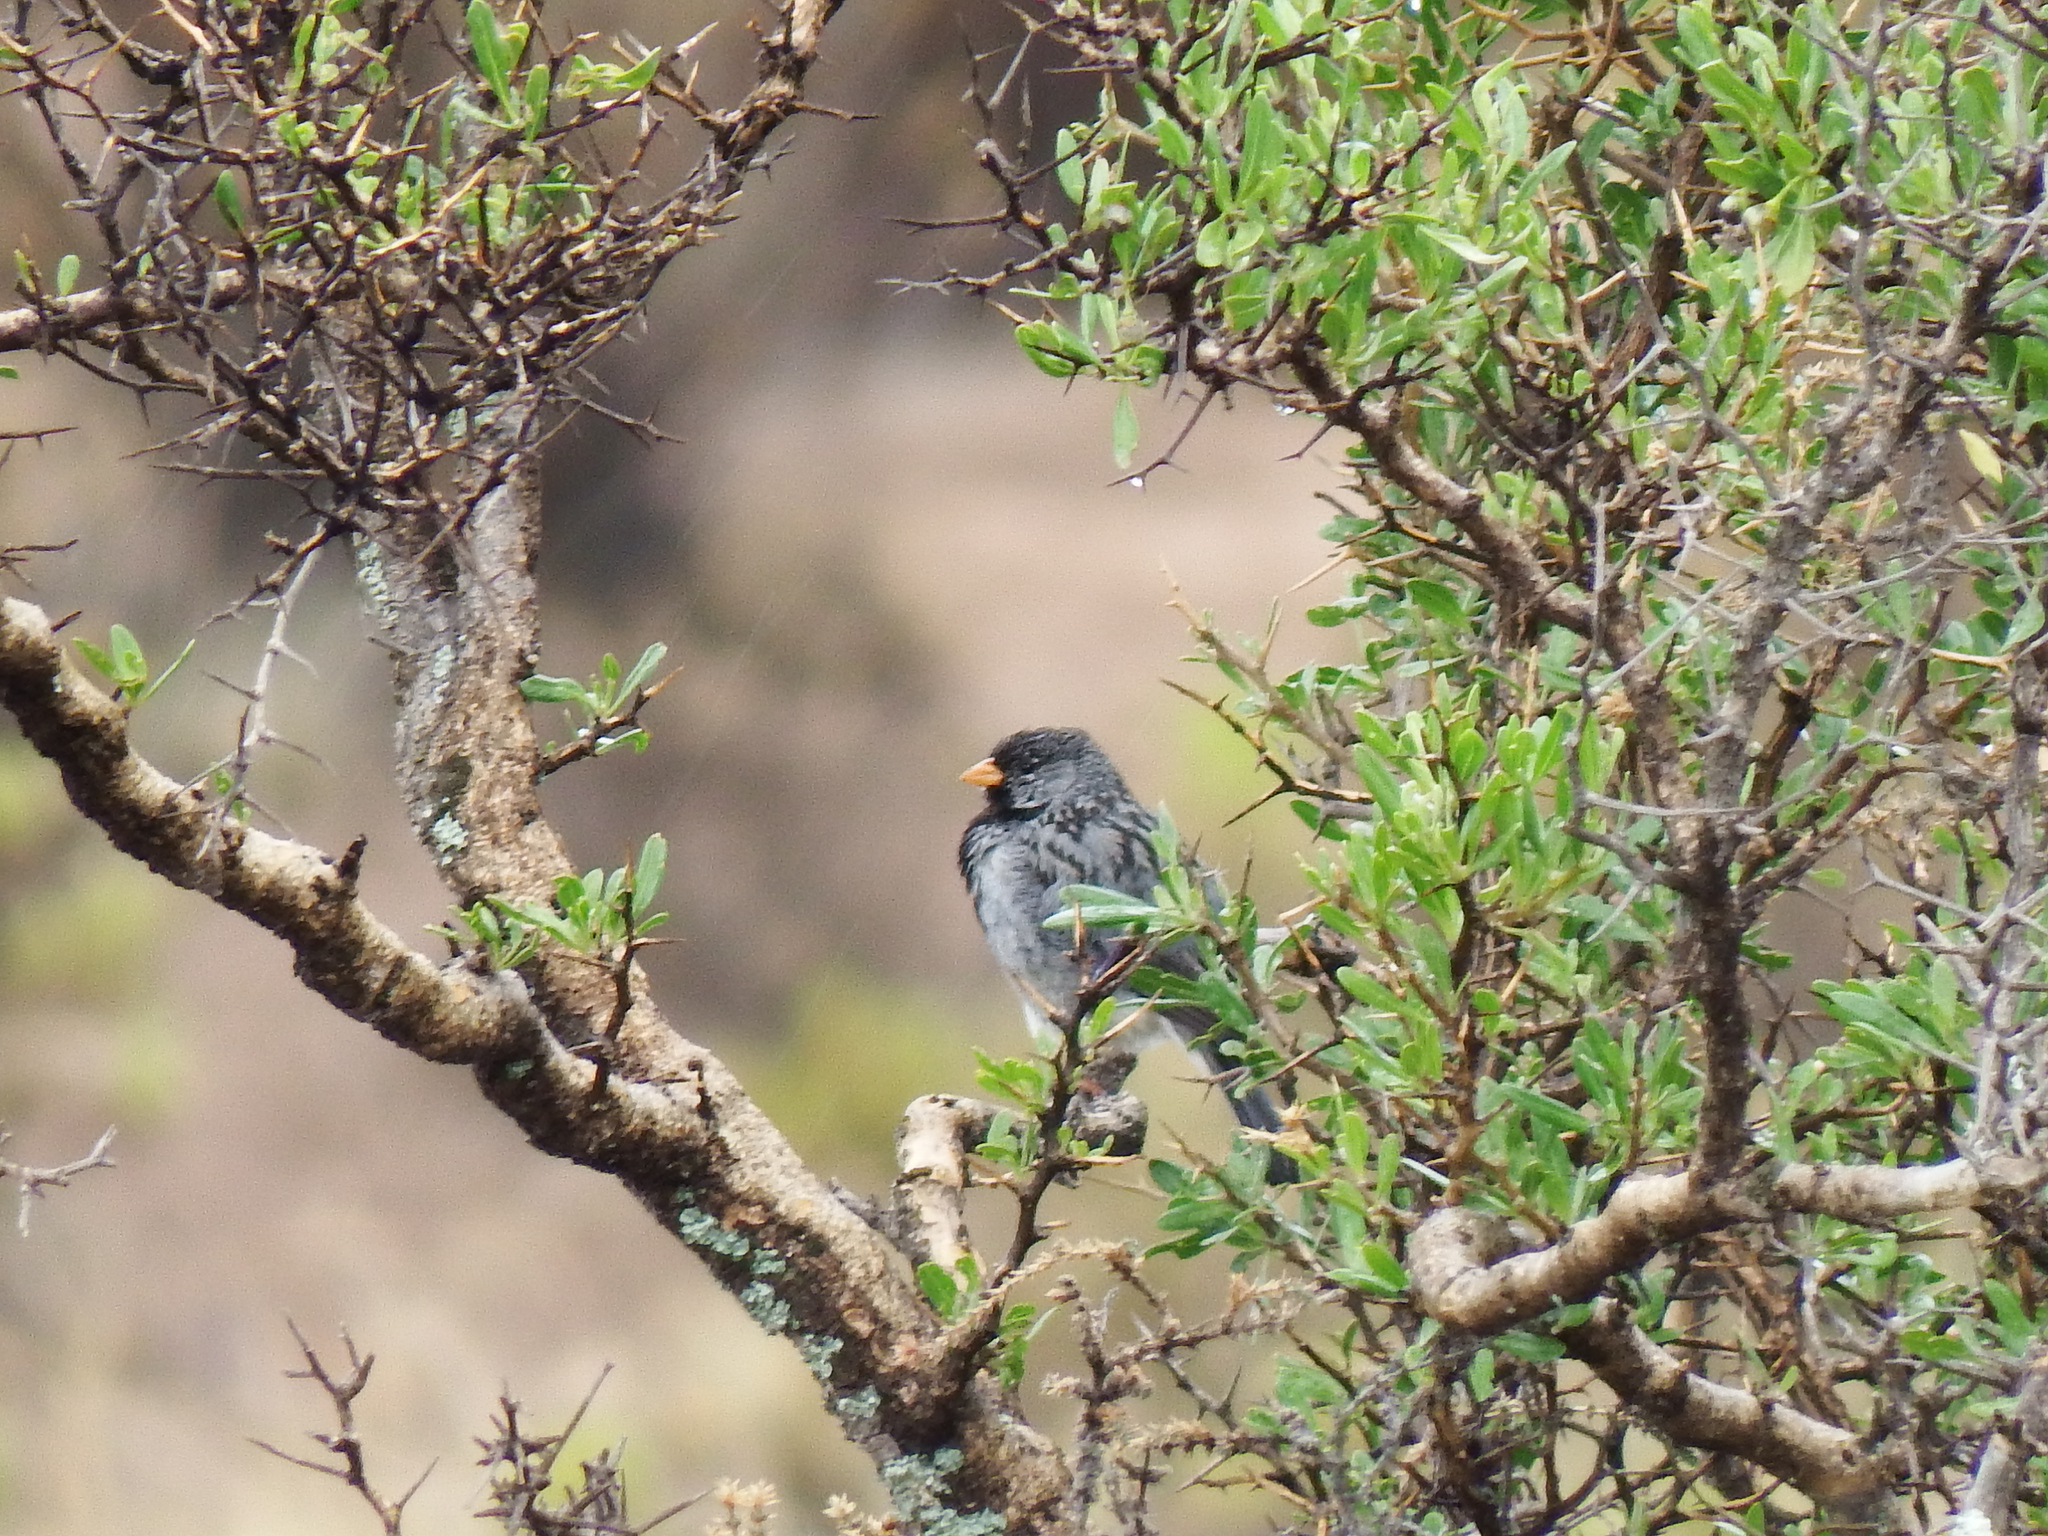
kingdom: Animalia
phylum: Chordata
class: Aves
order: Passeriformes
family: Thraupidae
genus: Rhopospina
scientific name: Rhopospina fruticeti
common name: Mourning sierra finch
